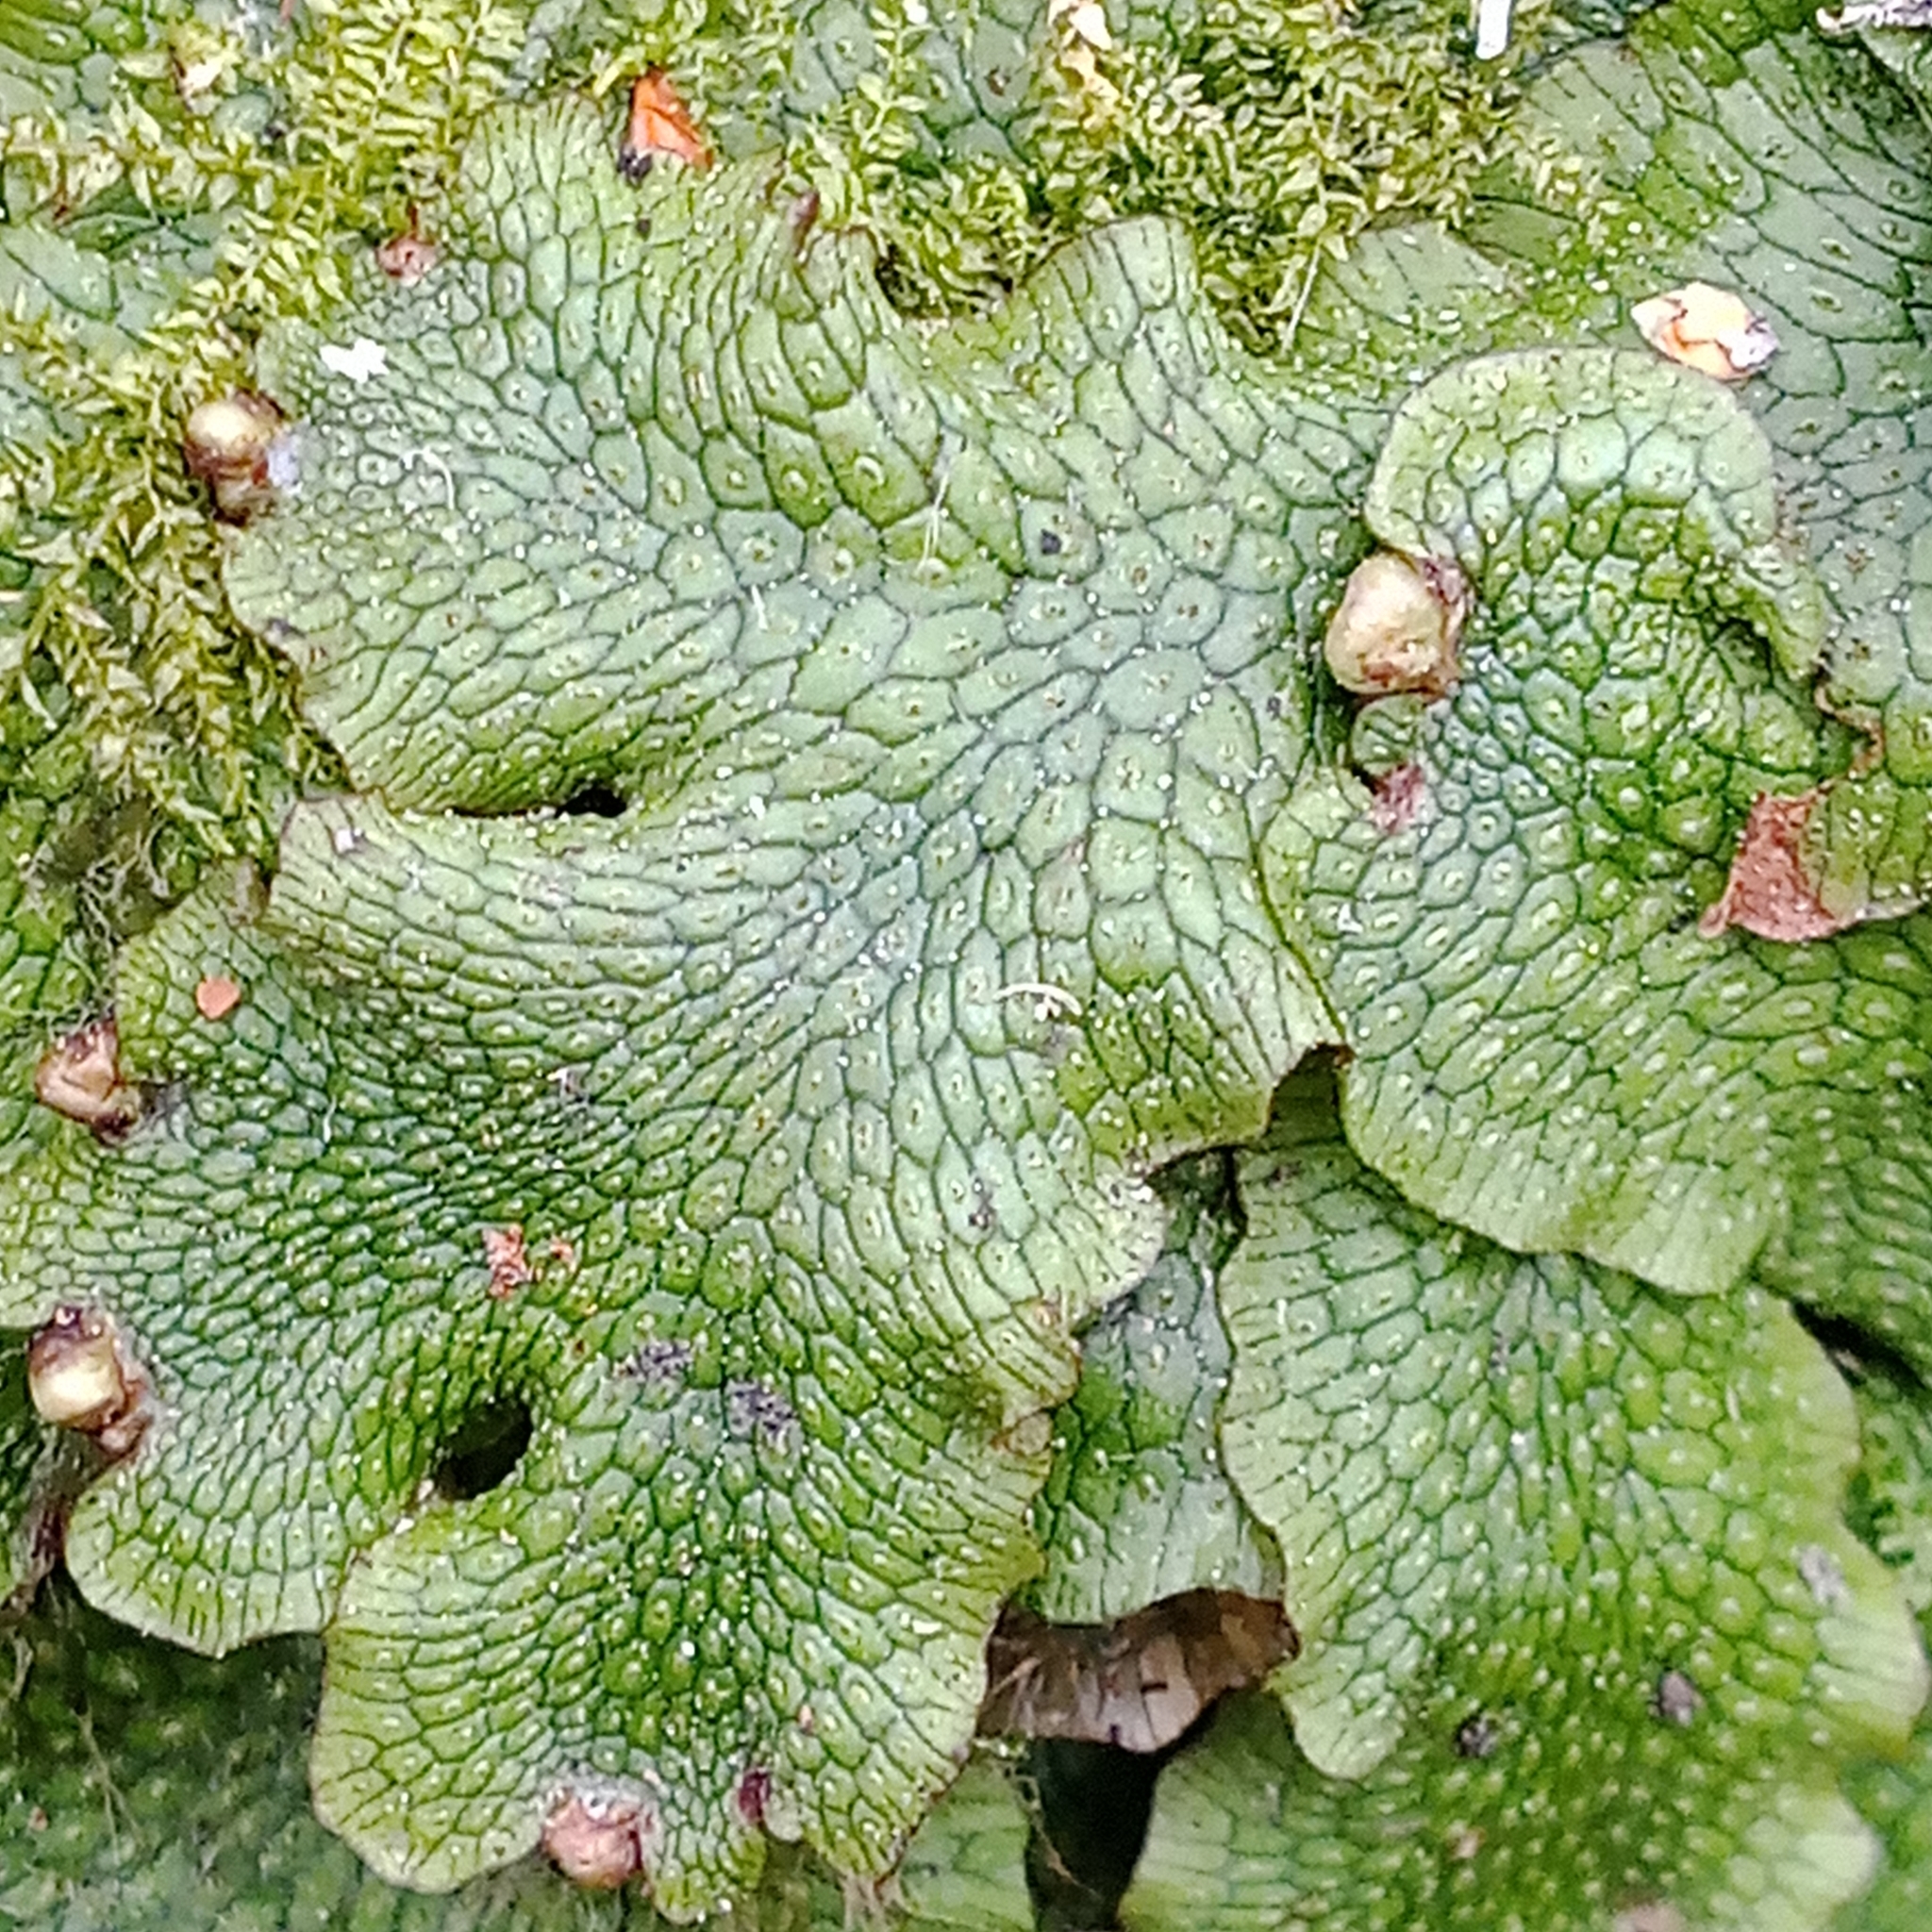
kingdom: Plantae
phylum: Marchantiophyta
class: Marchantiopsida
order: Marchantiales
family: Conocephalaceae
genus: Conocephalum
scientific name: Conocephalum salebrosum
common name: Cat-tongue liverwort
